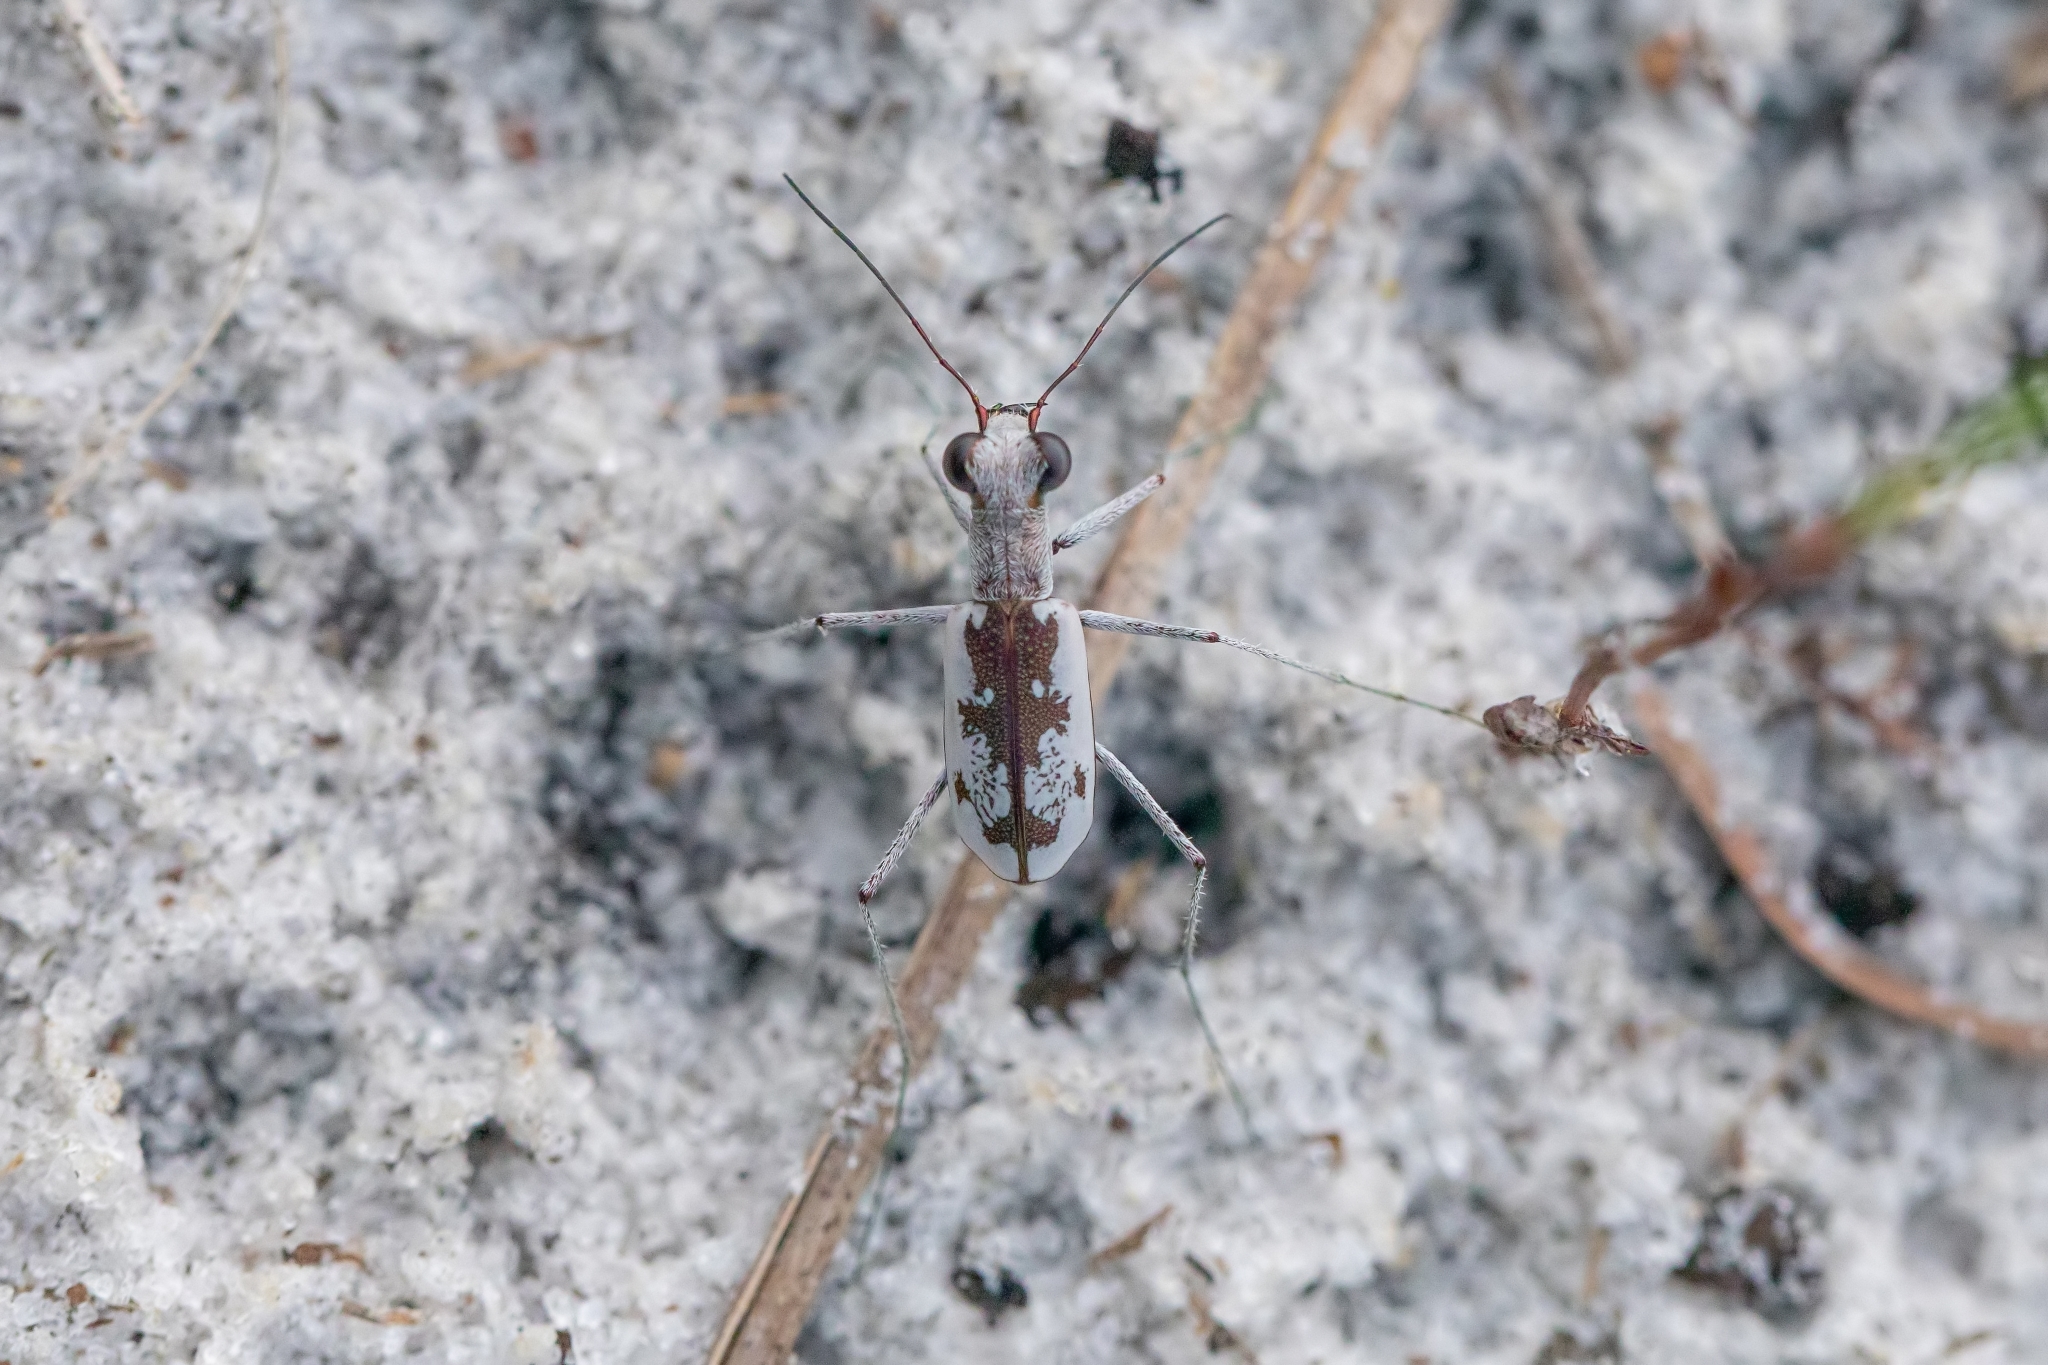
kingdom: Animalia
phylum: Arthropoda
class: Insecta
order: Coleoptera
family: Carabidae
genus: Ellipsoptera
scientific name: Ellipsoptera hirtilabris
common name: Moustached tiger beetle
